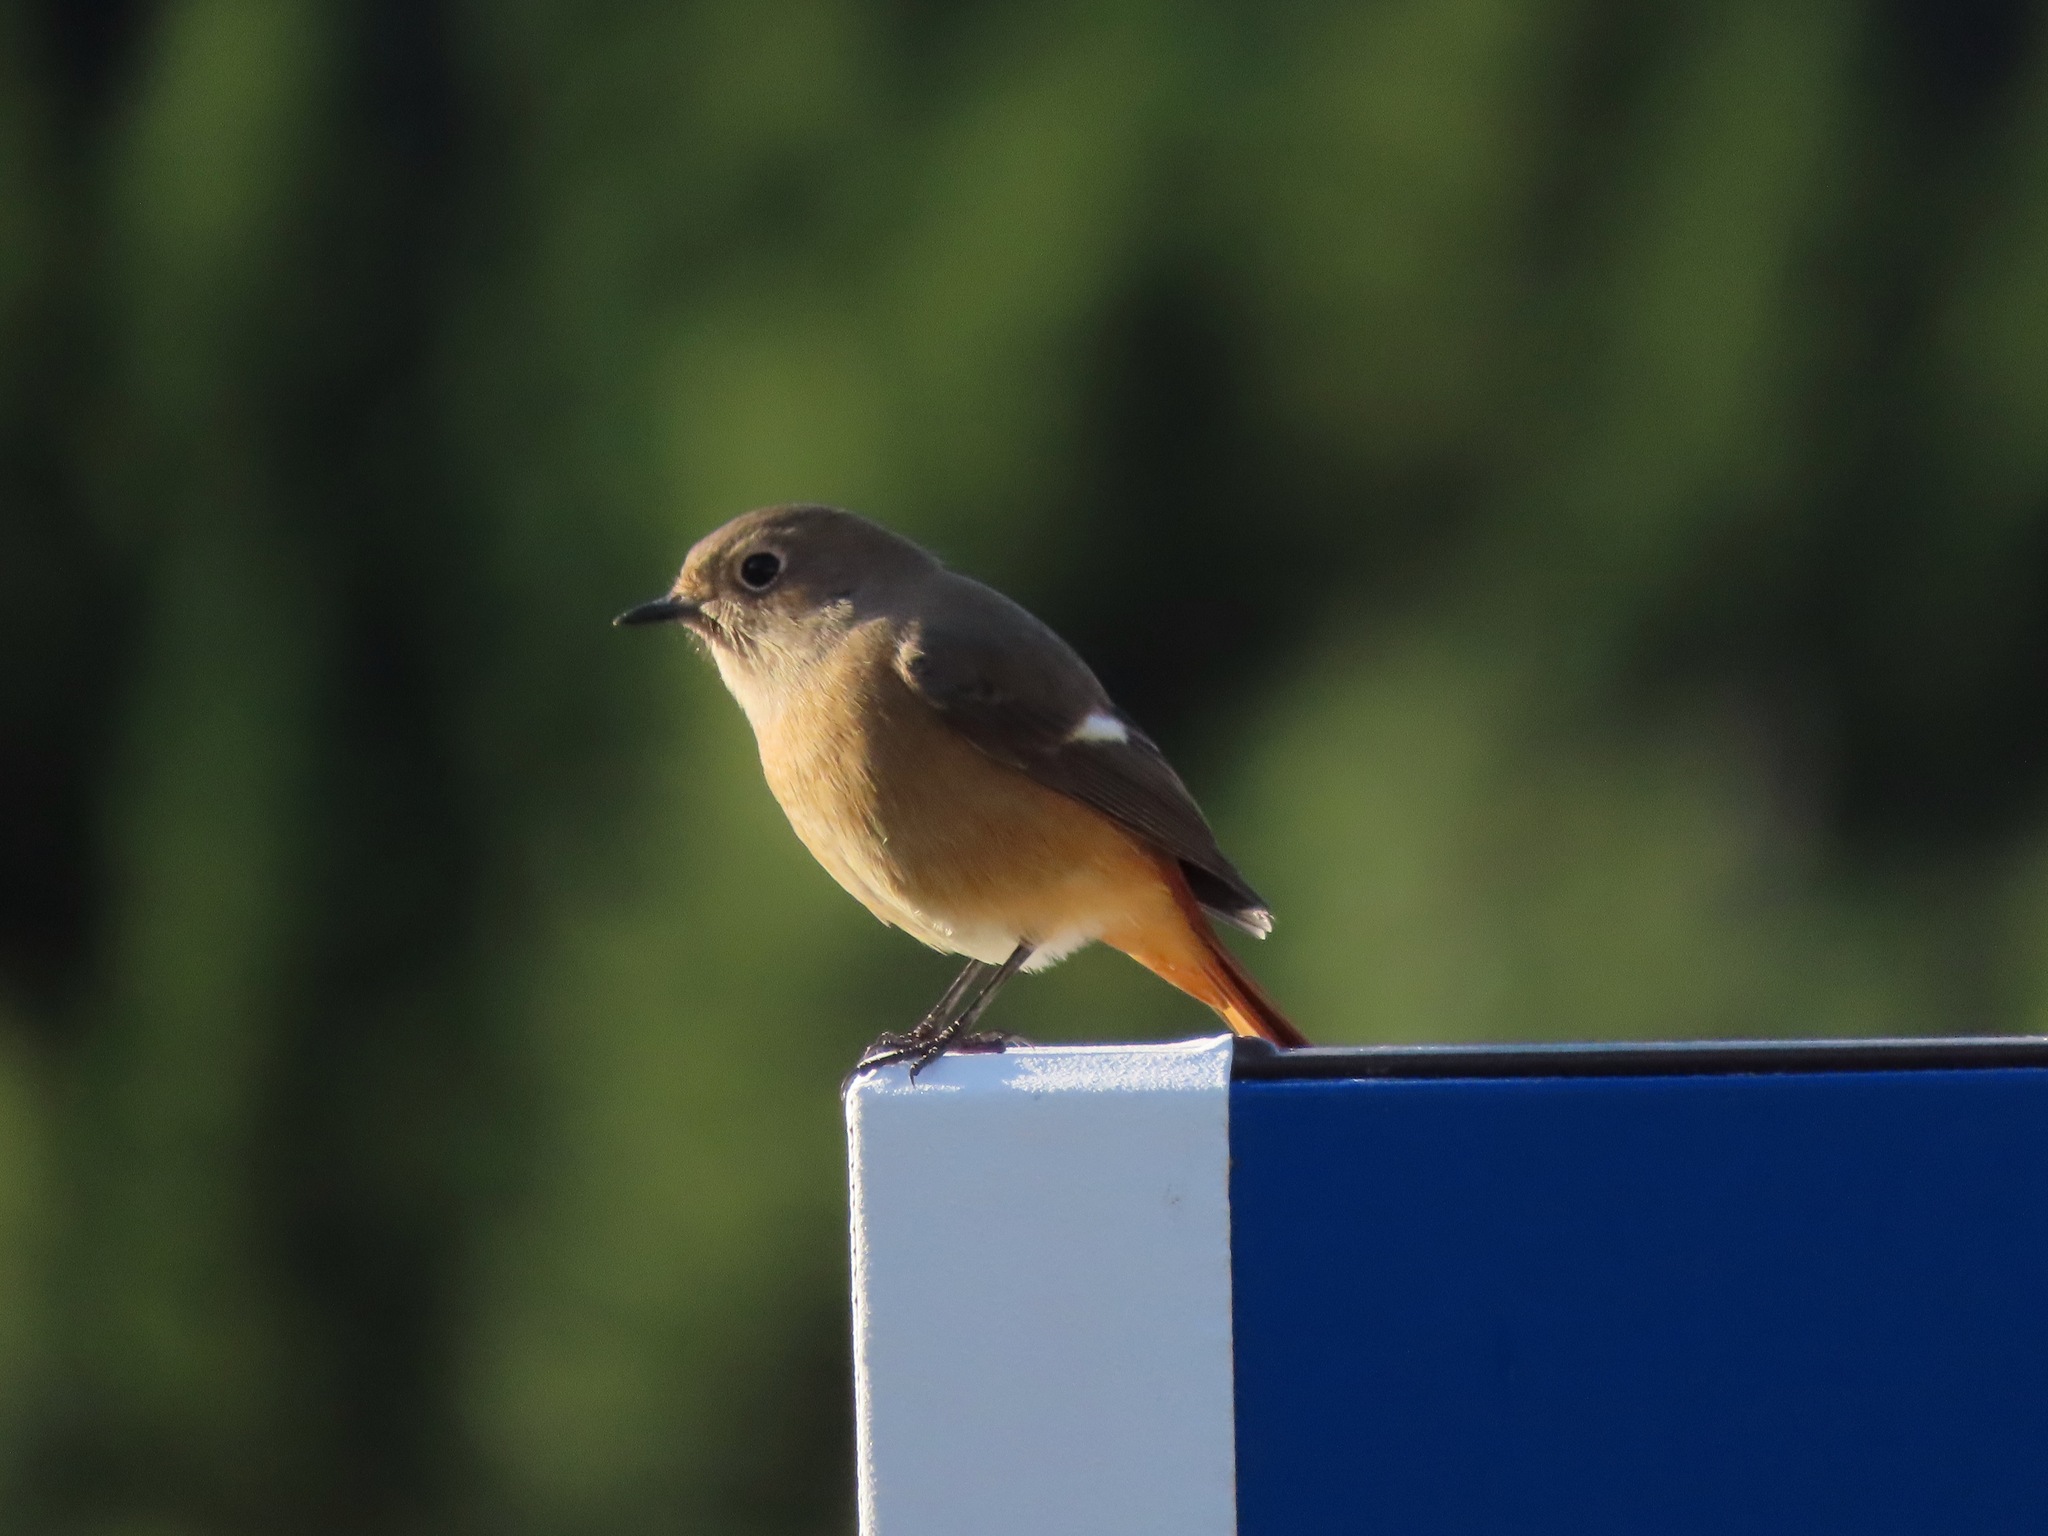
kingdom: Animalia
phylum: Chordata
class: Aves
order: Passeriformes
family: Muscicapidae
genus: Phoenicurus
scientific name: Phoenicurus auroreus
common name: Daurian redstart
